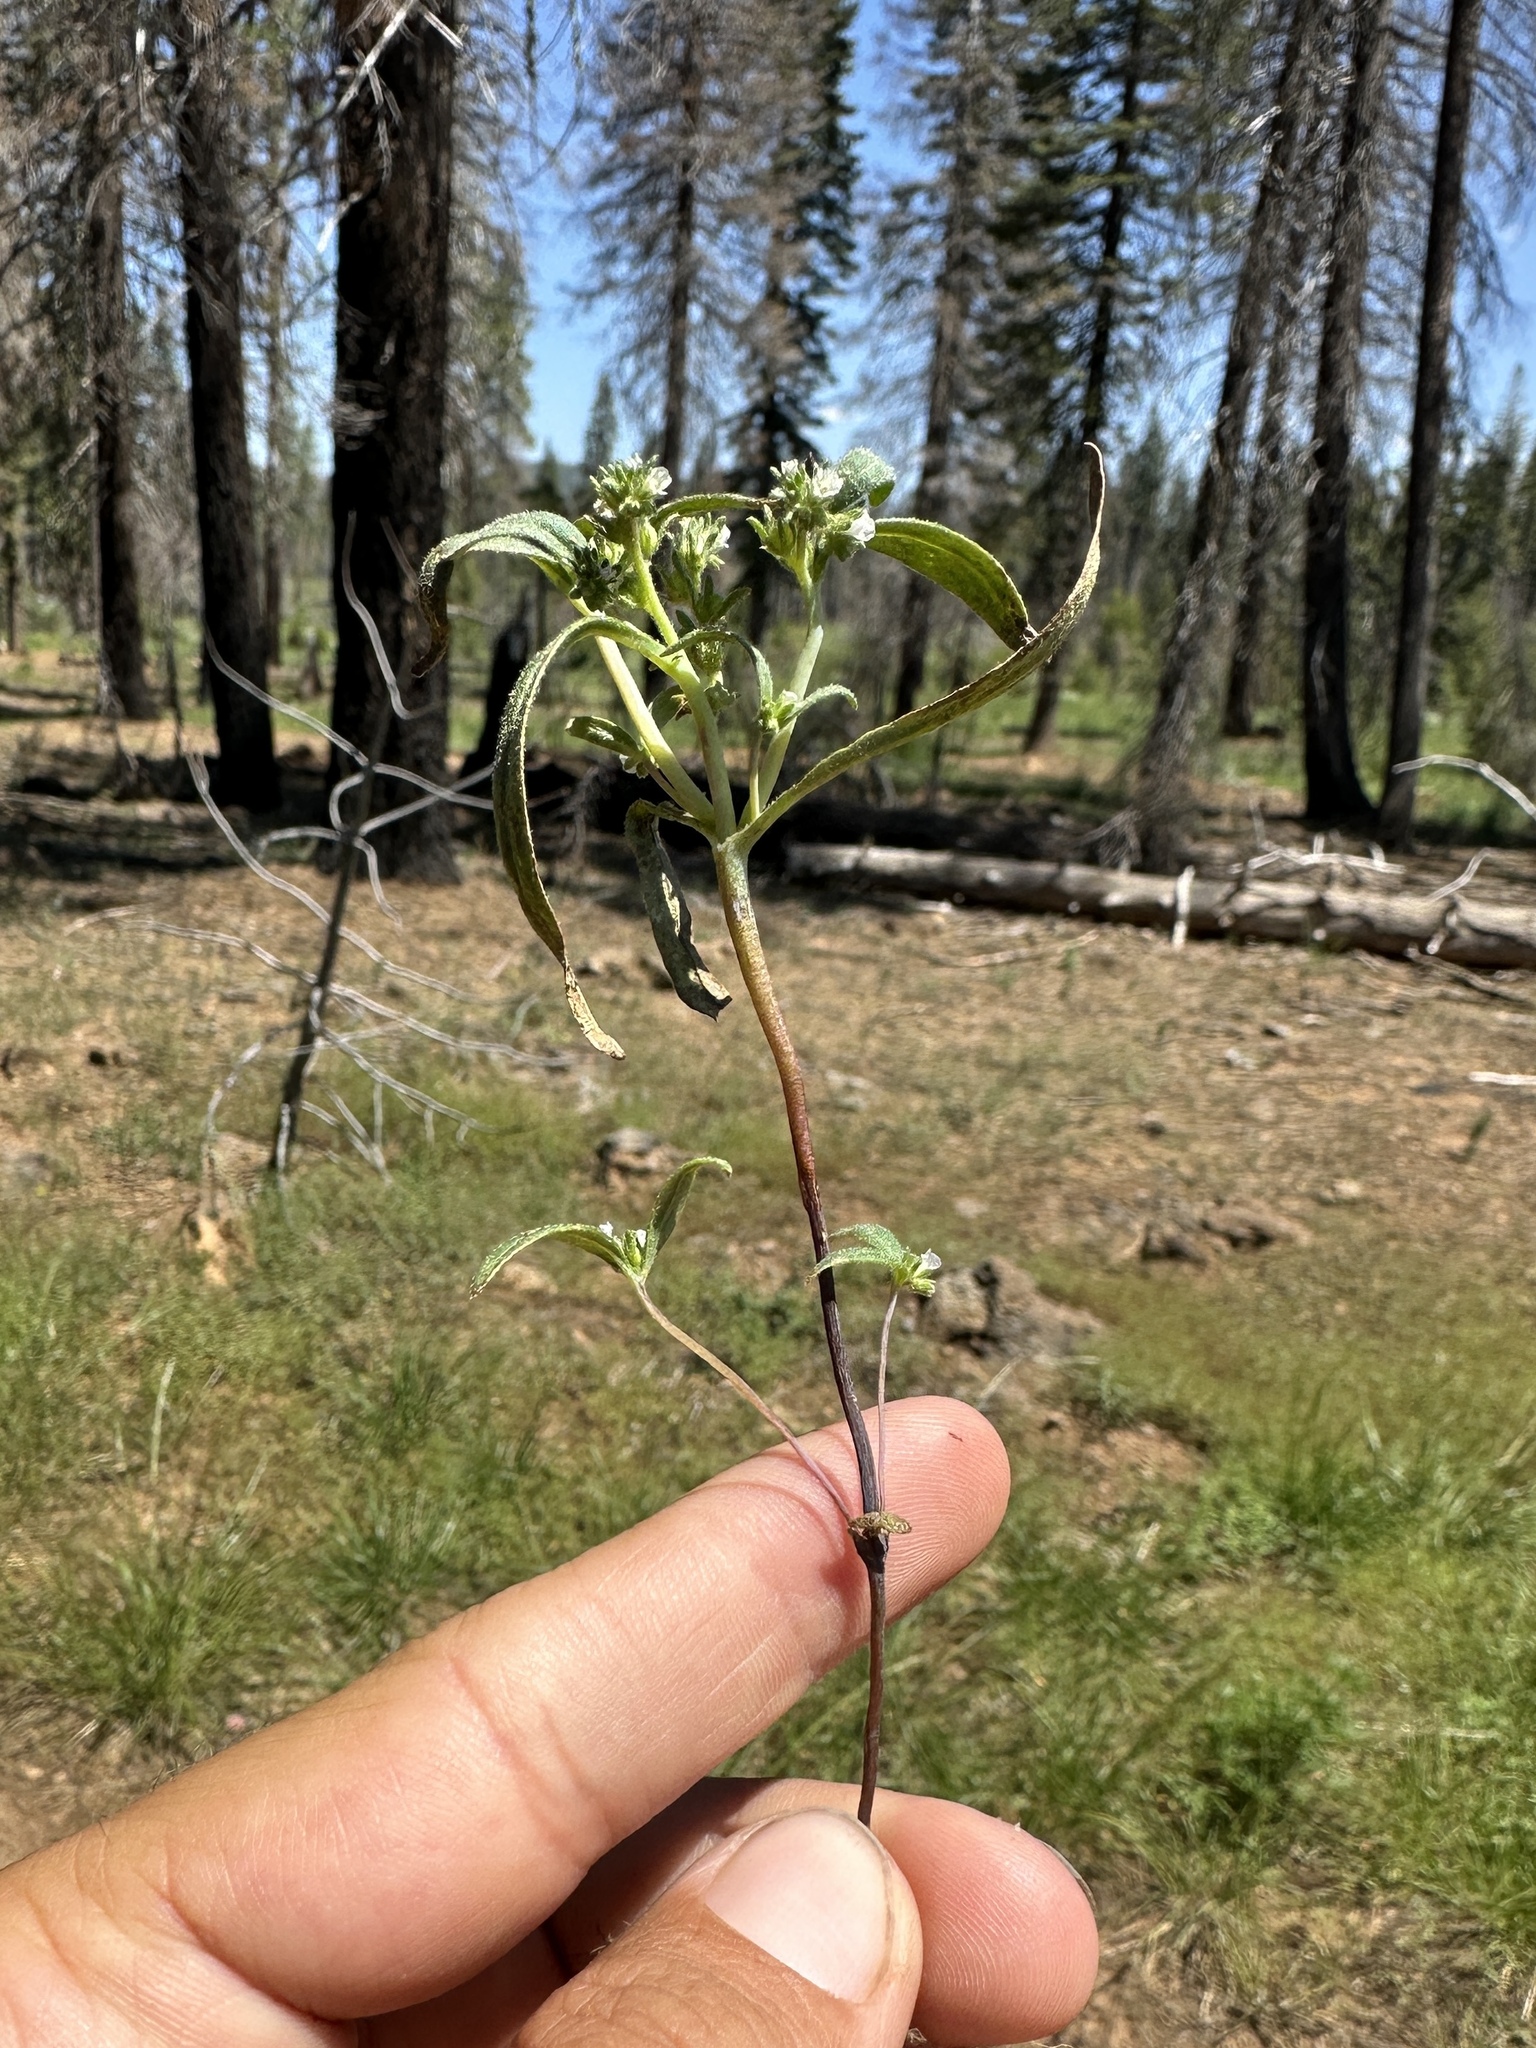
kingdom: Plantae
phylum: Tracheophyta
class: Magnoliopsida
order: Boraginales
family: Hydrophyllaceae
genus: Phacelia
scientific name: Phacelia racemosa
